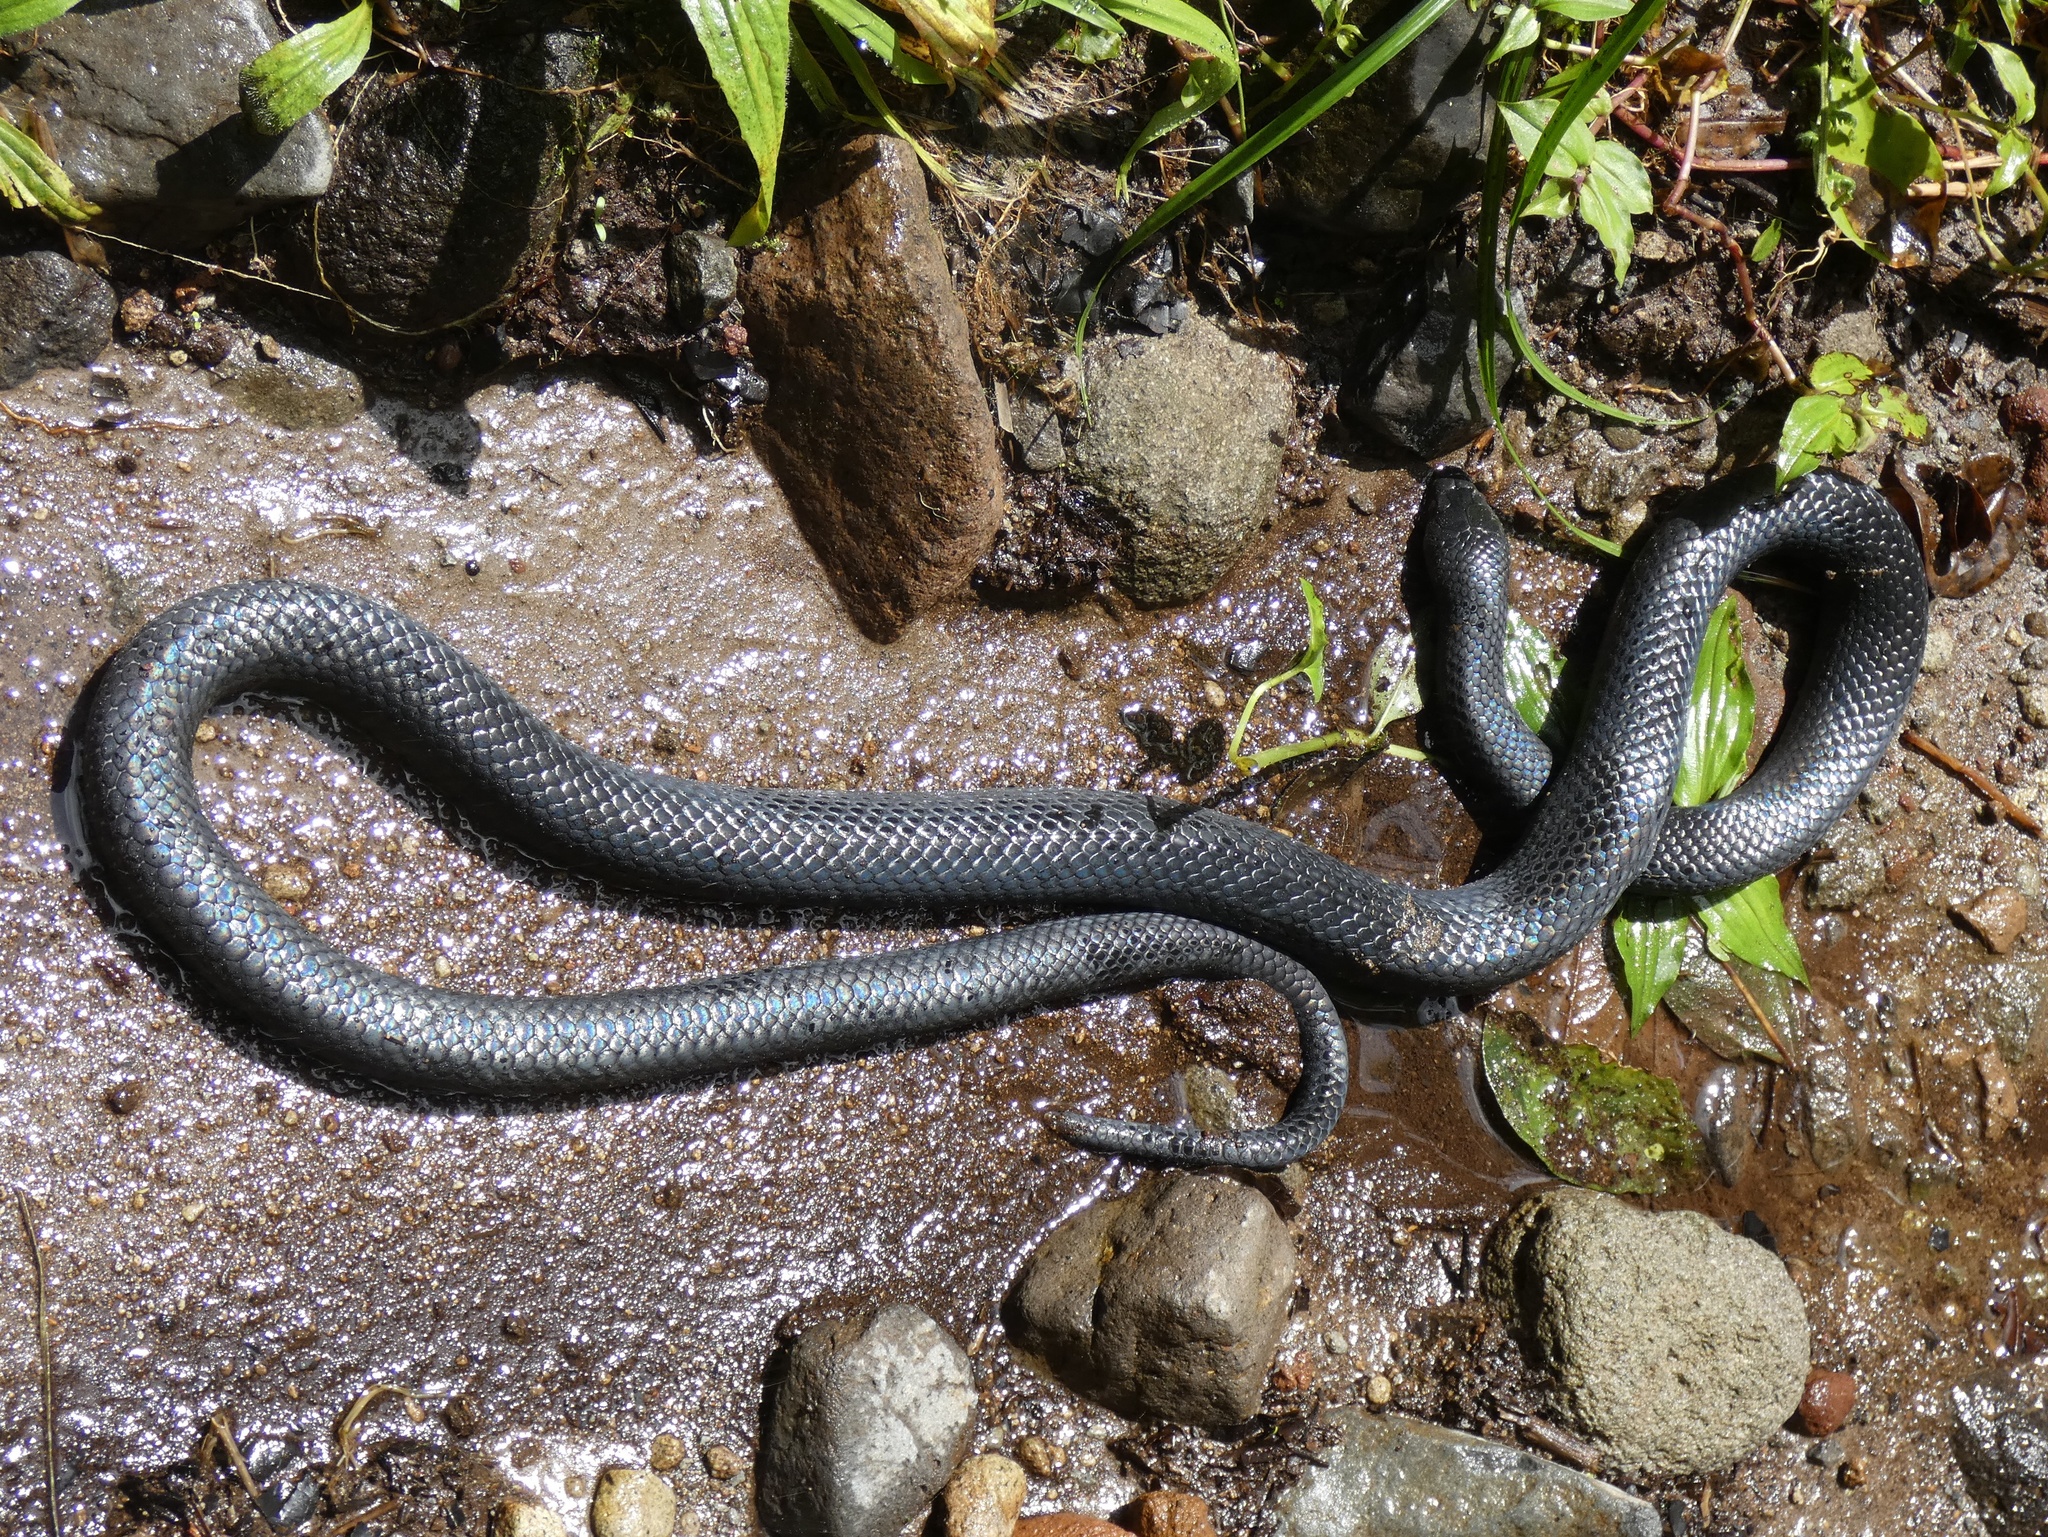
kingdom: Animalia
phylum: Chordata
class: Squamata
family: Colubridae
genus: Clelia
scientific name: Clelia clelia
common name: Mussurana
